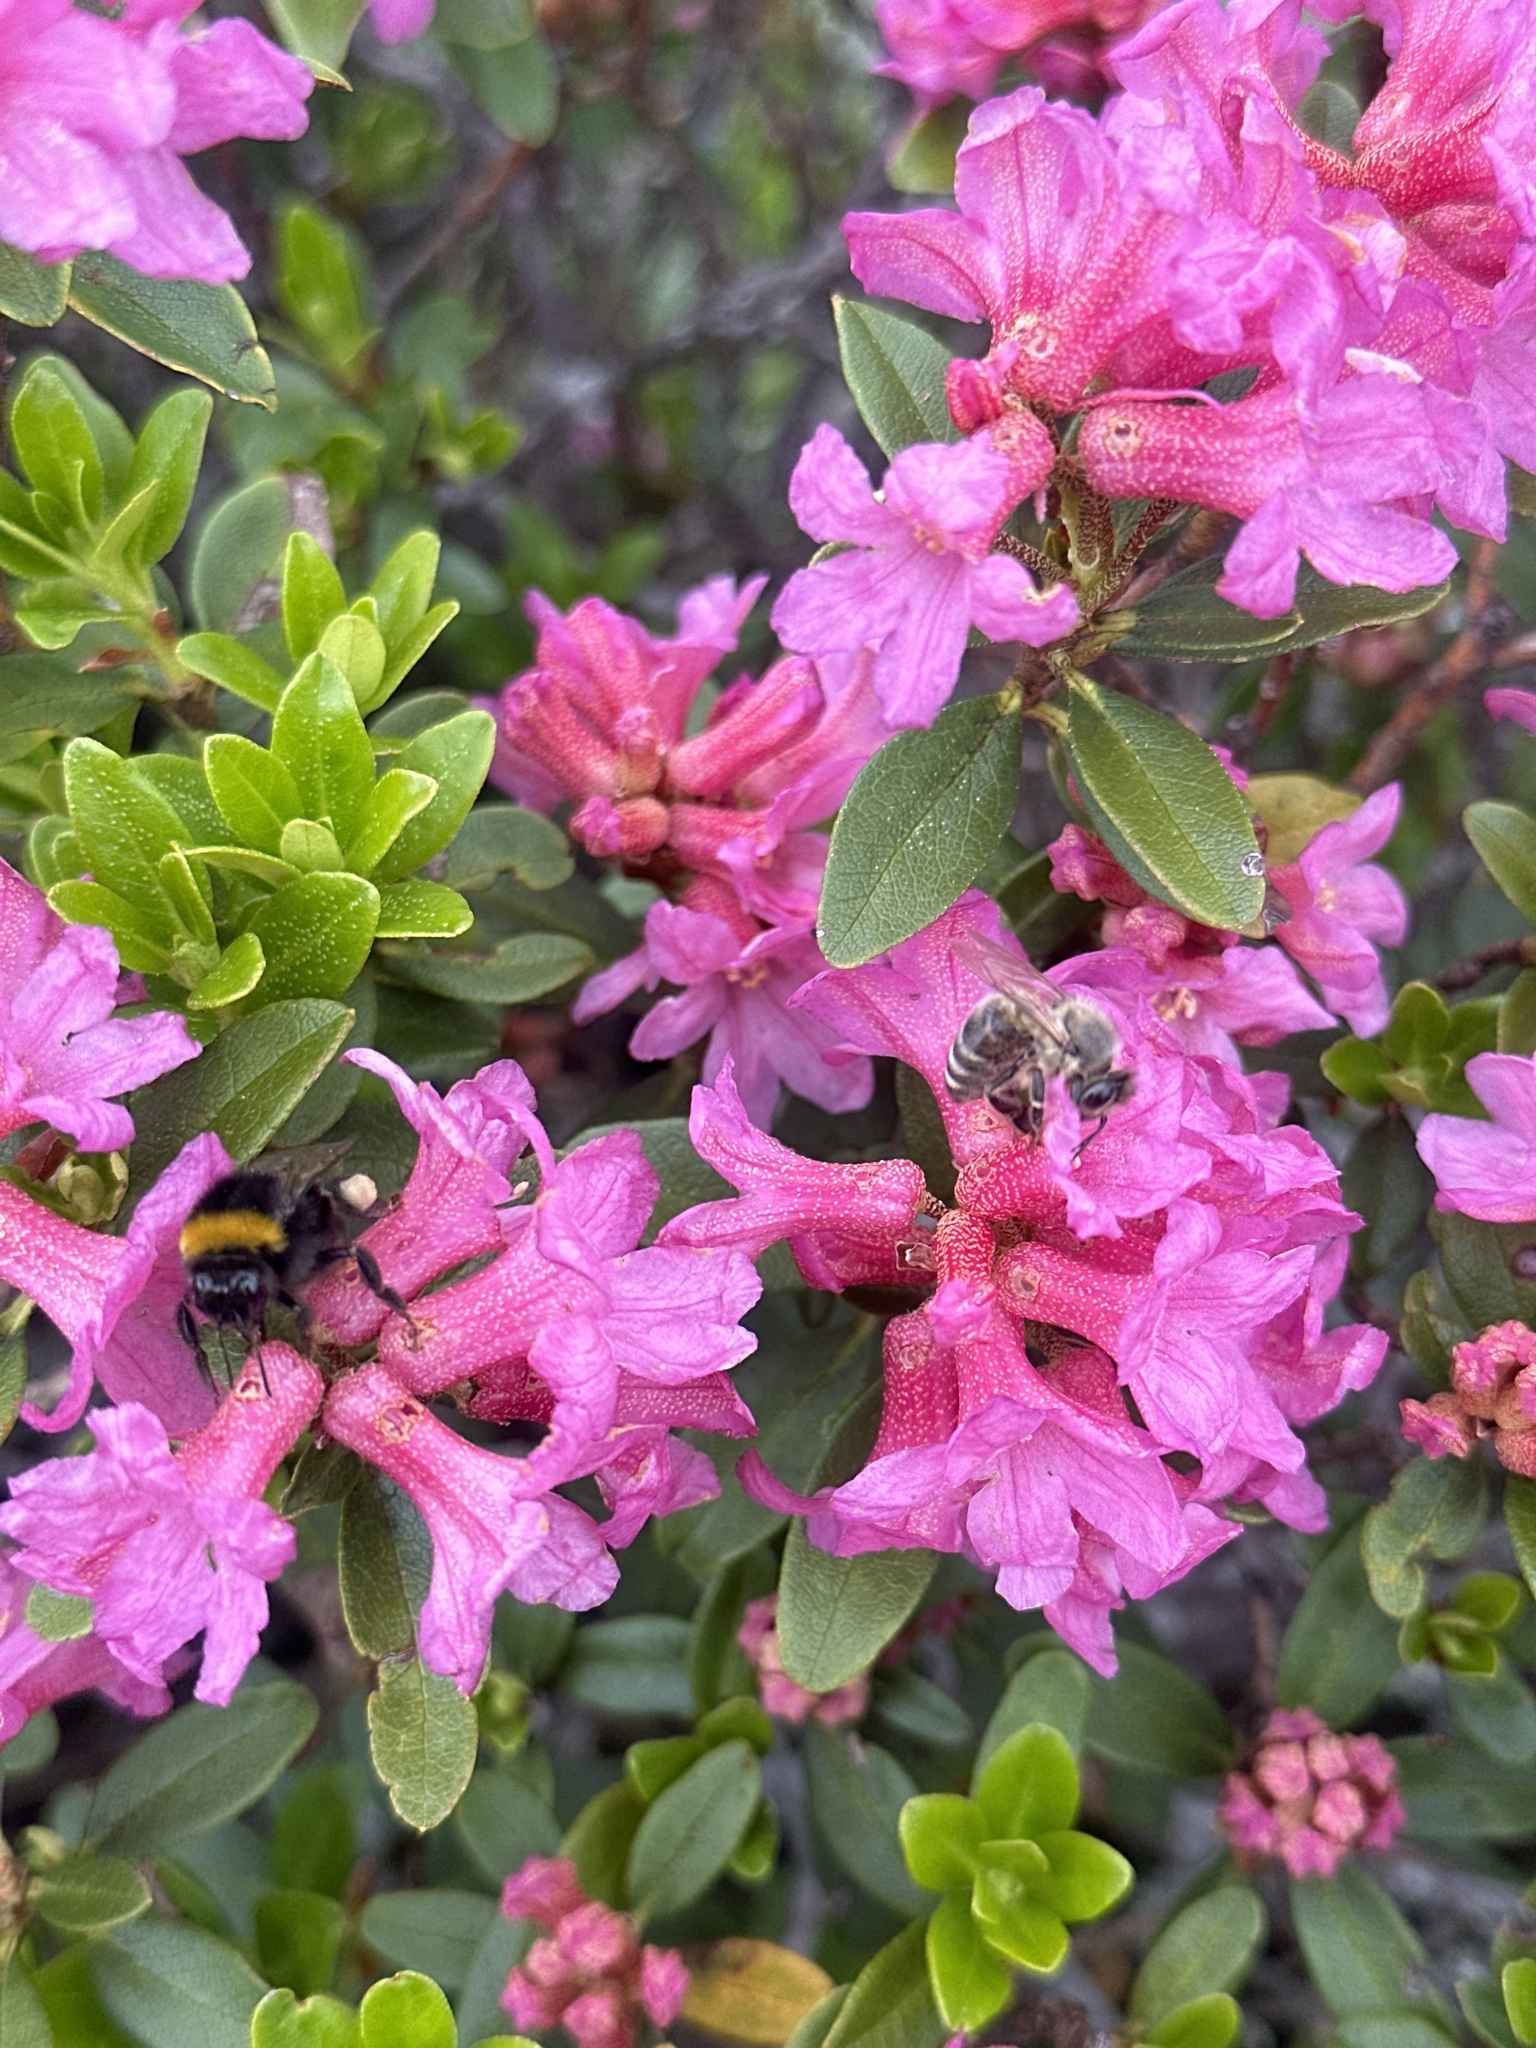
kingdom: Animalia
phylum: Arthropoda
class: Insecta
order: Hymenoptera
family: Apidae
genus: Apis
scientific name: Apis mellifera
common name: Honey bee
